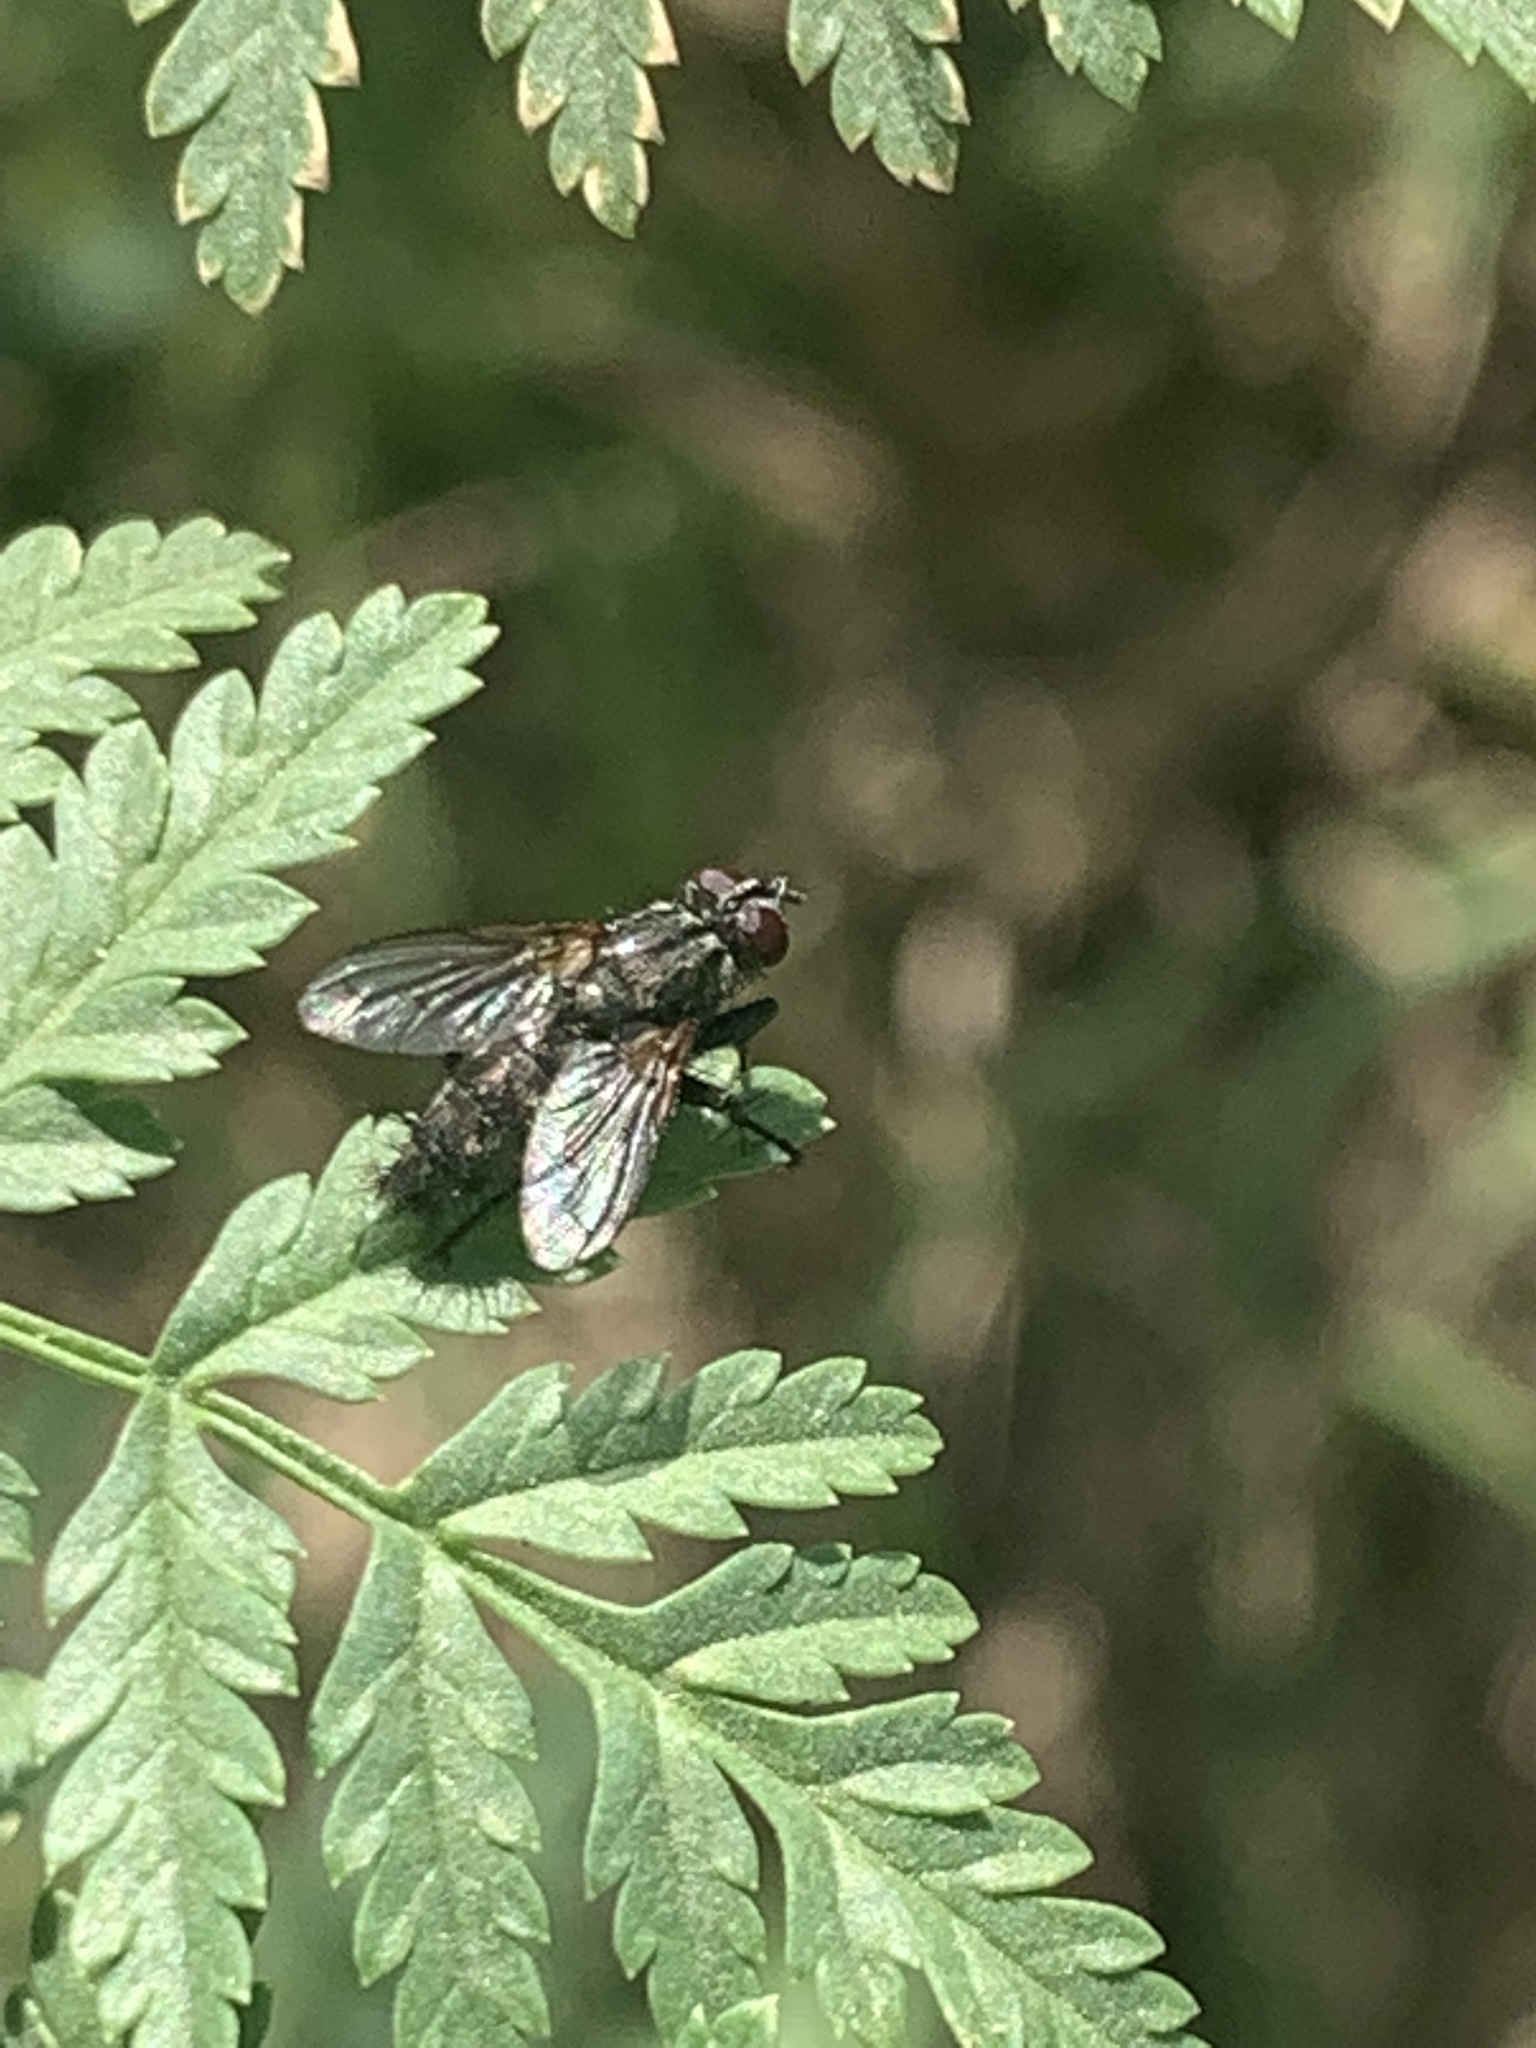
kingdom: Animalia
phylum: Arthropoda
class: Insecta
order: Diptera
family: Calliphoridae
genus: Stevenia
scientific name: Stevenia deceptoria
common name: Grizzled woodlouse-fly
